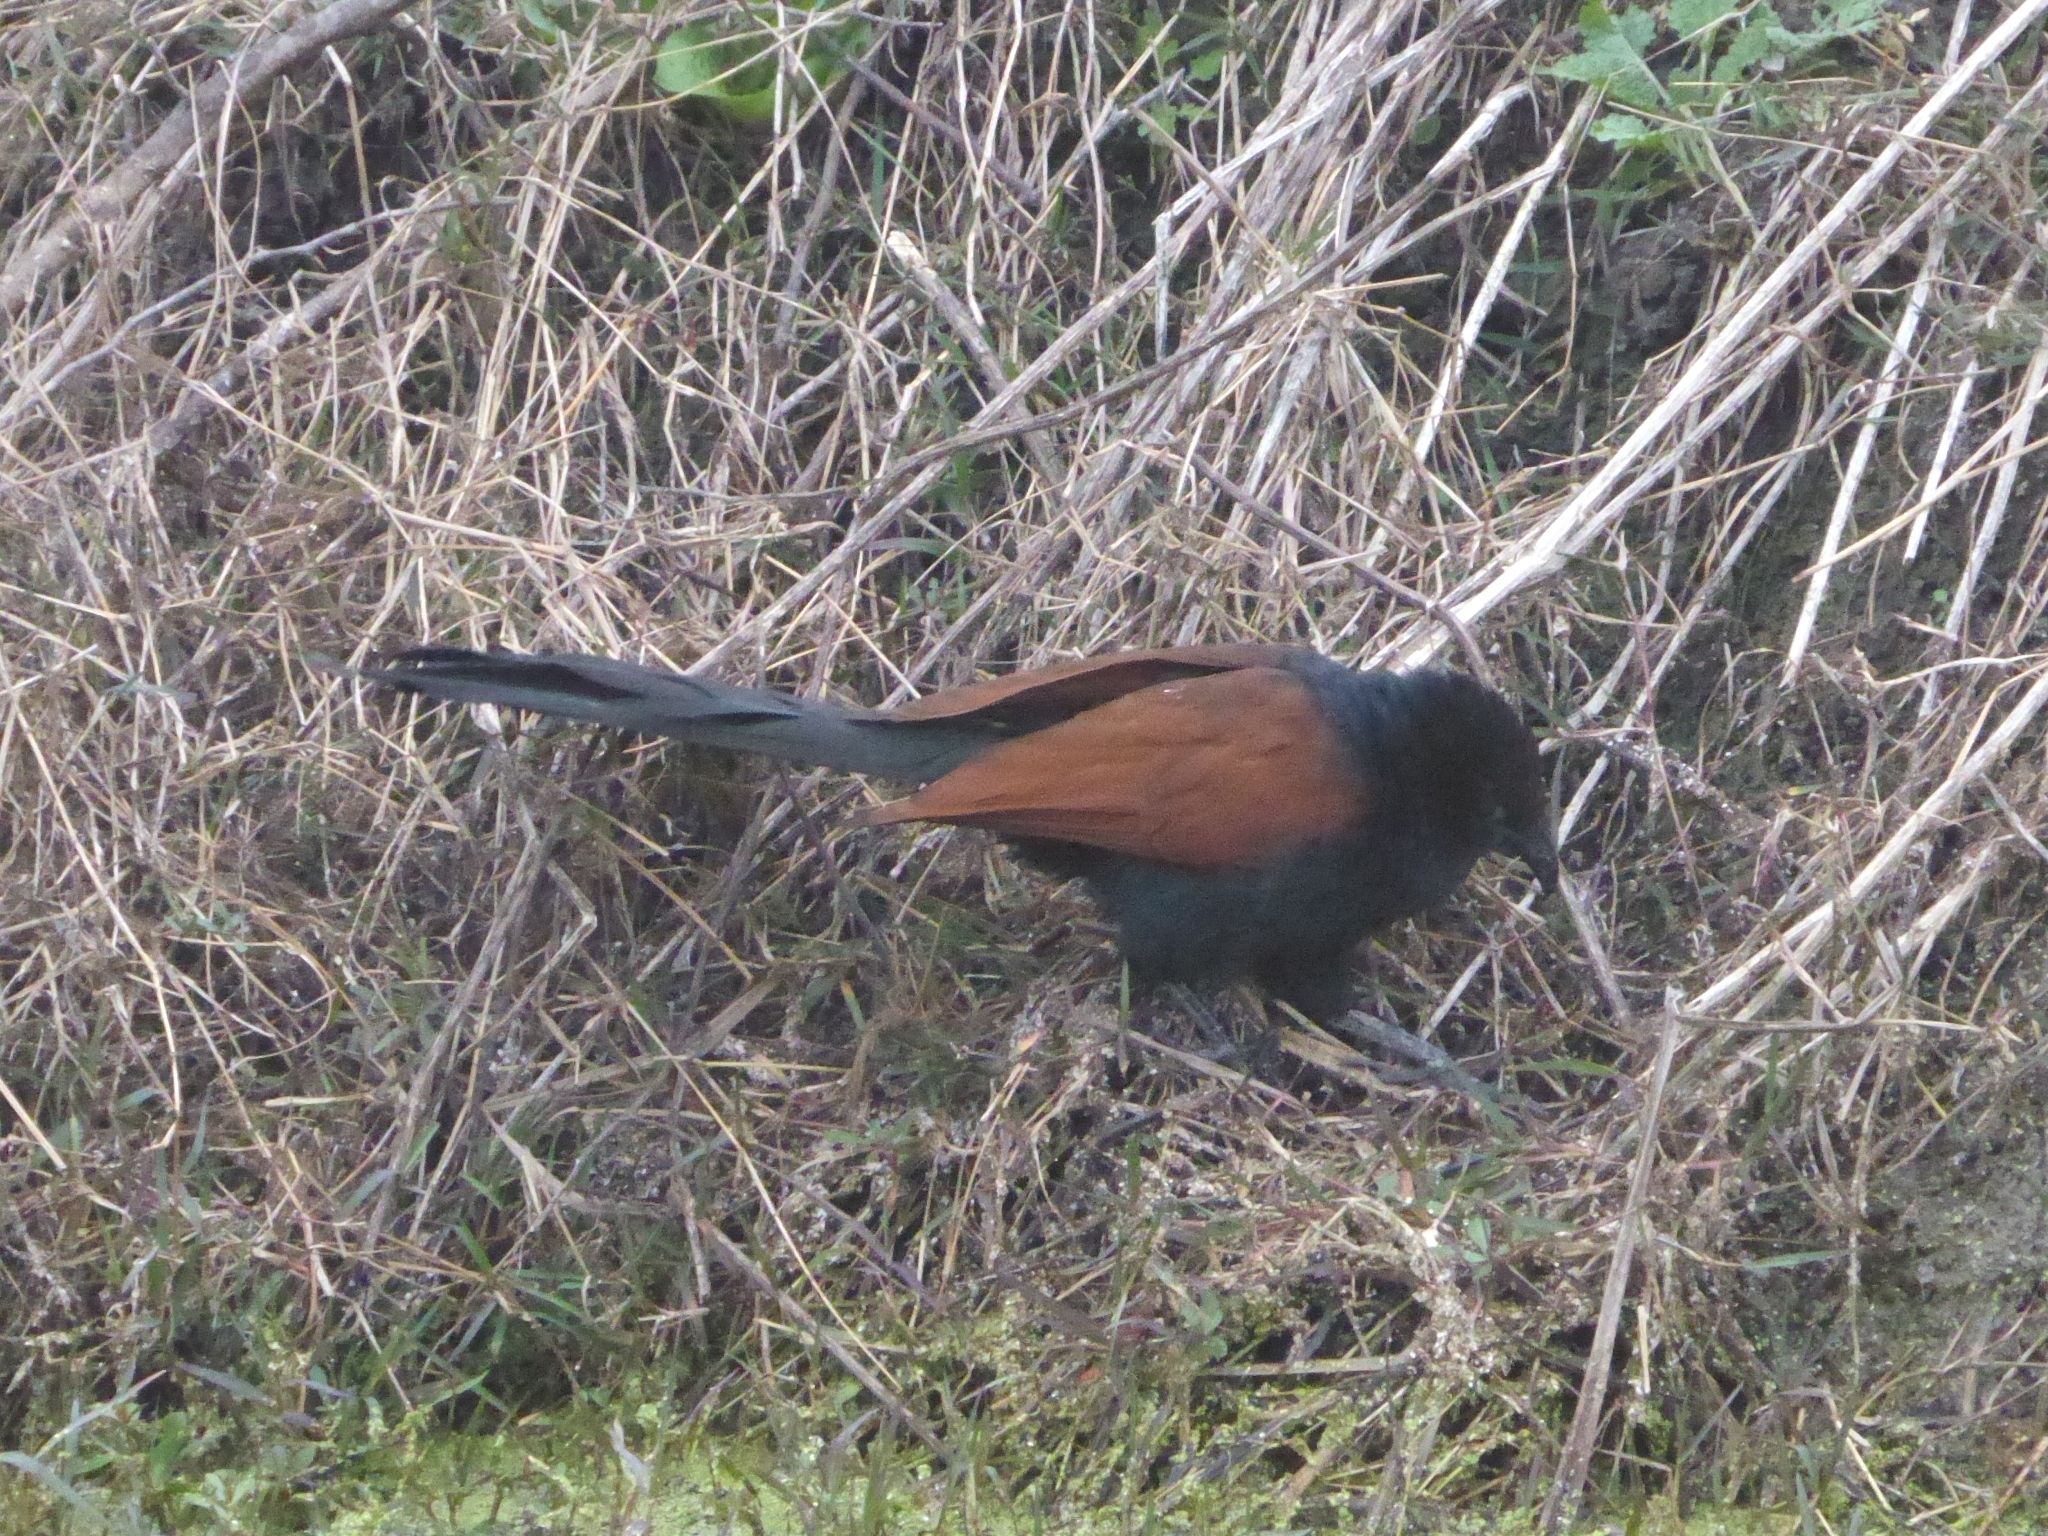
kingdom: Animalia
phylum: Chordata
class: Aves
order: Cuculiformes
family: Cuculidae
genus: Centropus
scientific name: Centropus sinensis
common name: Greater coucal
